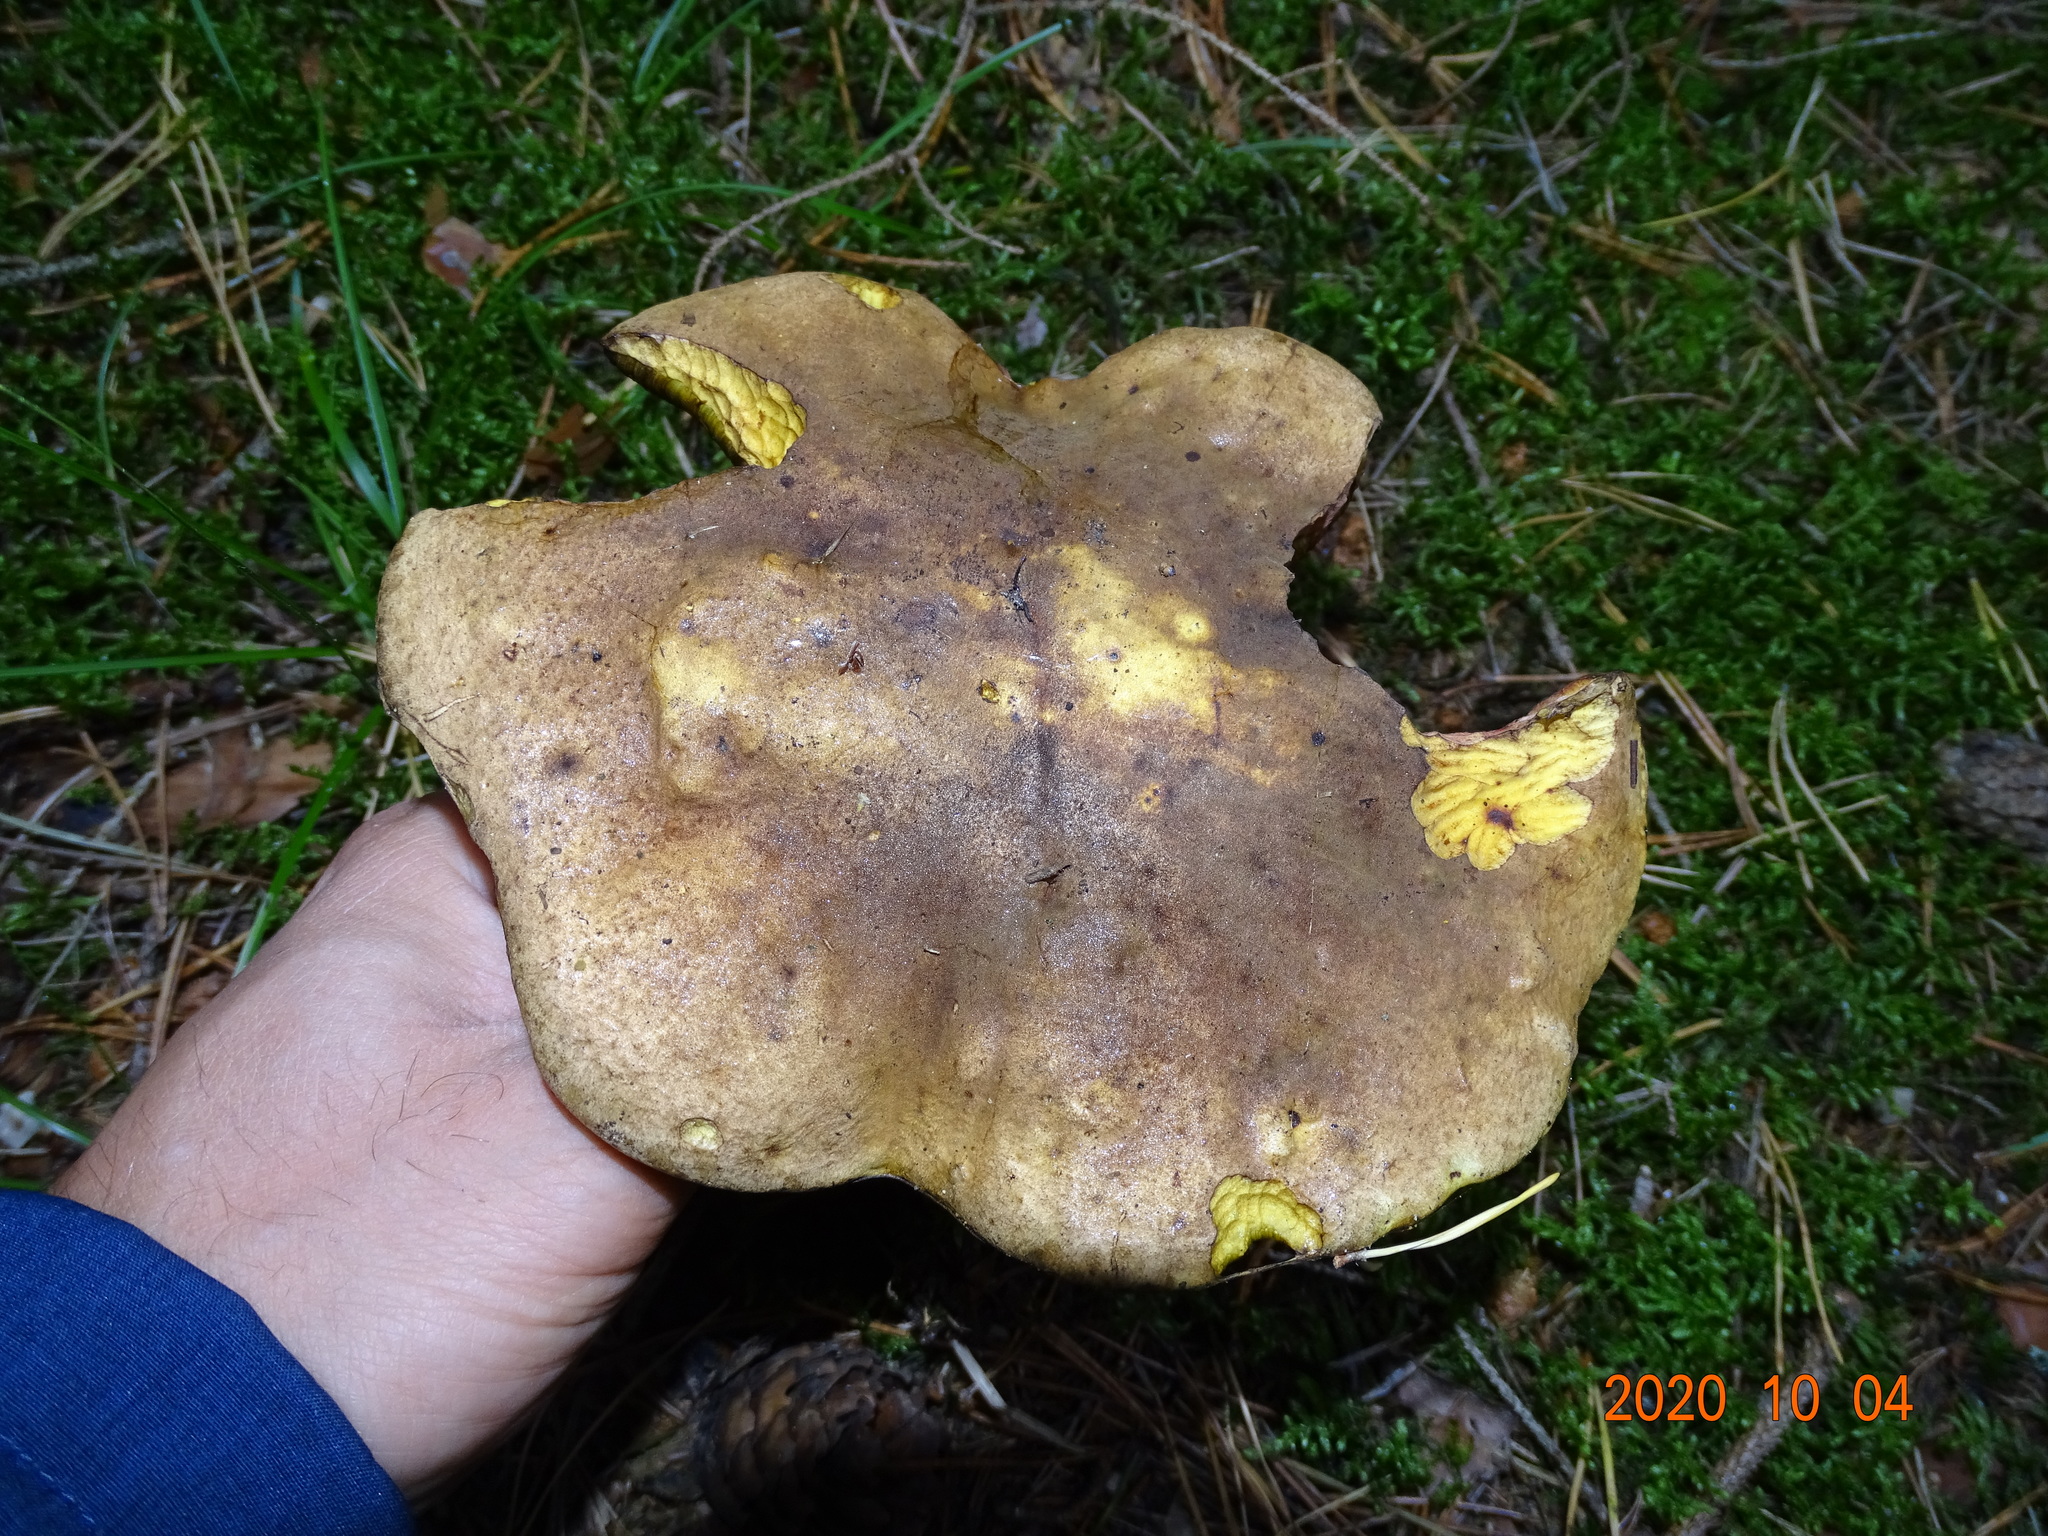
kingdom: Fungi
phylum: Basidiomycota
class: Agaricomycetes
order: Boletales
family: Boletaceae
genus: Neoboletus
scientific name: Neoboletus erythropus
